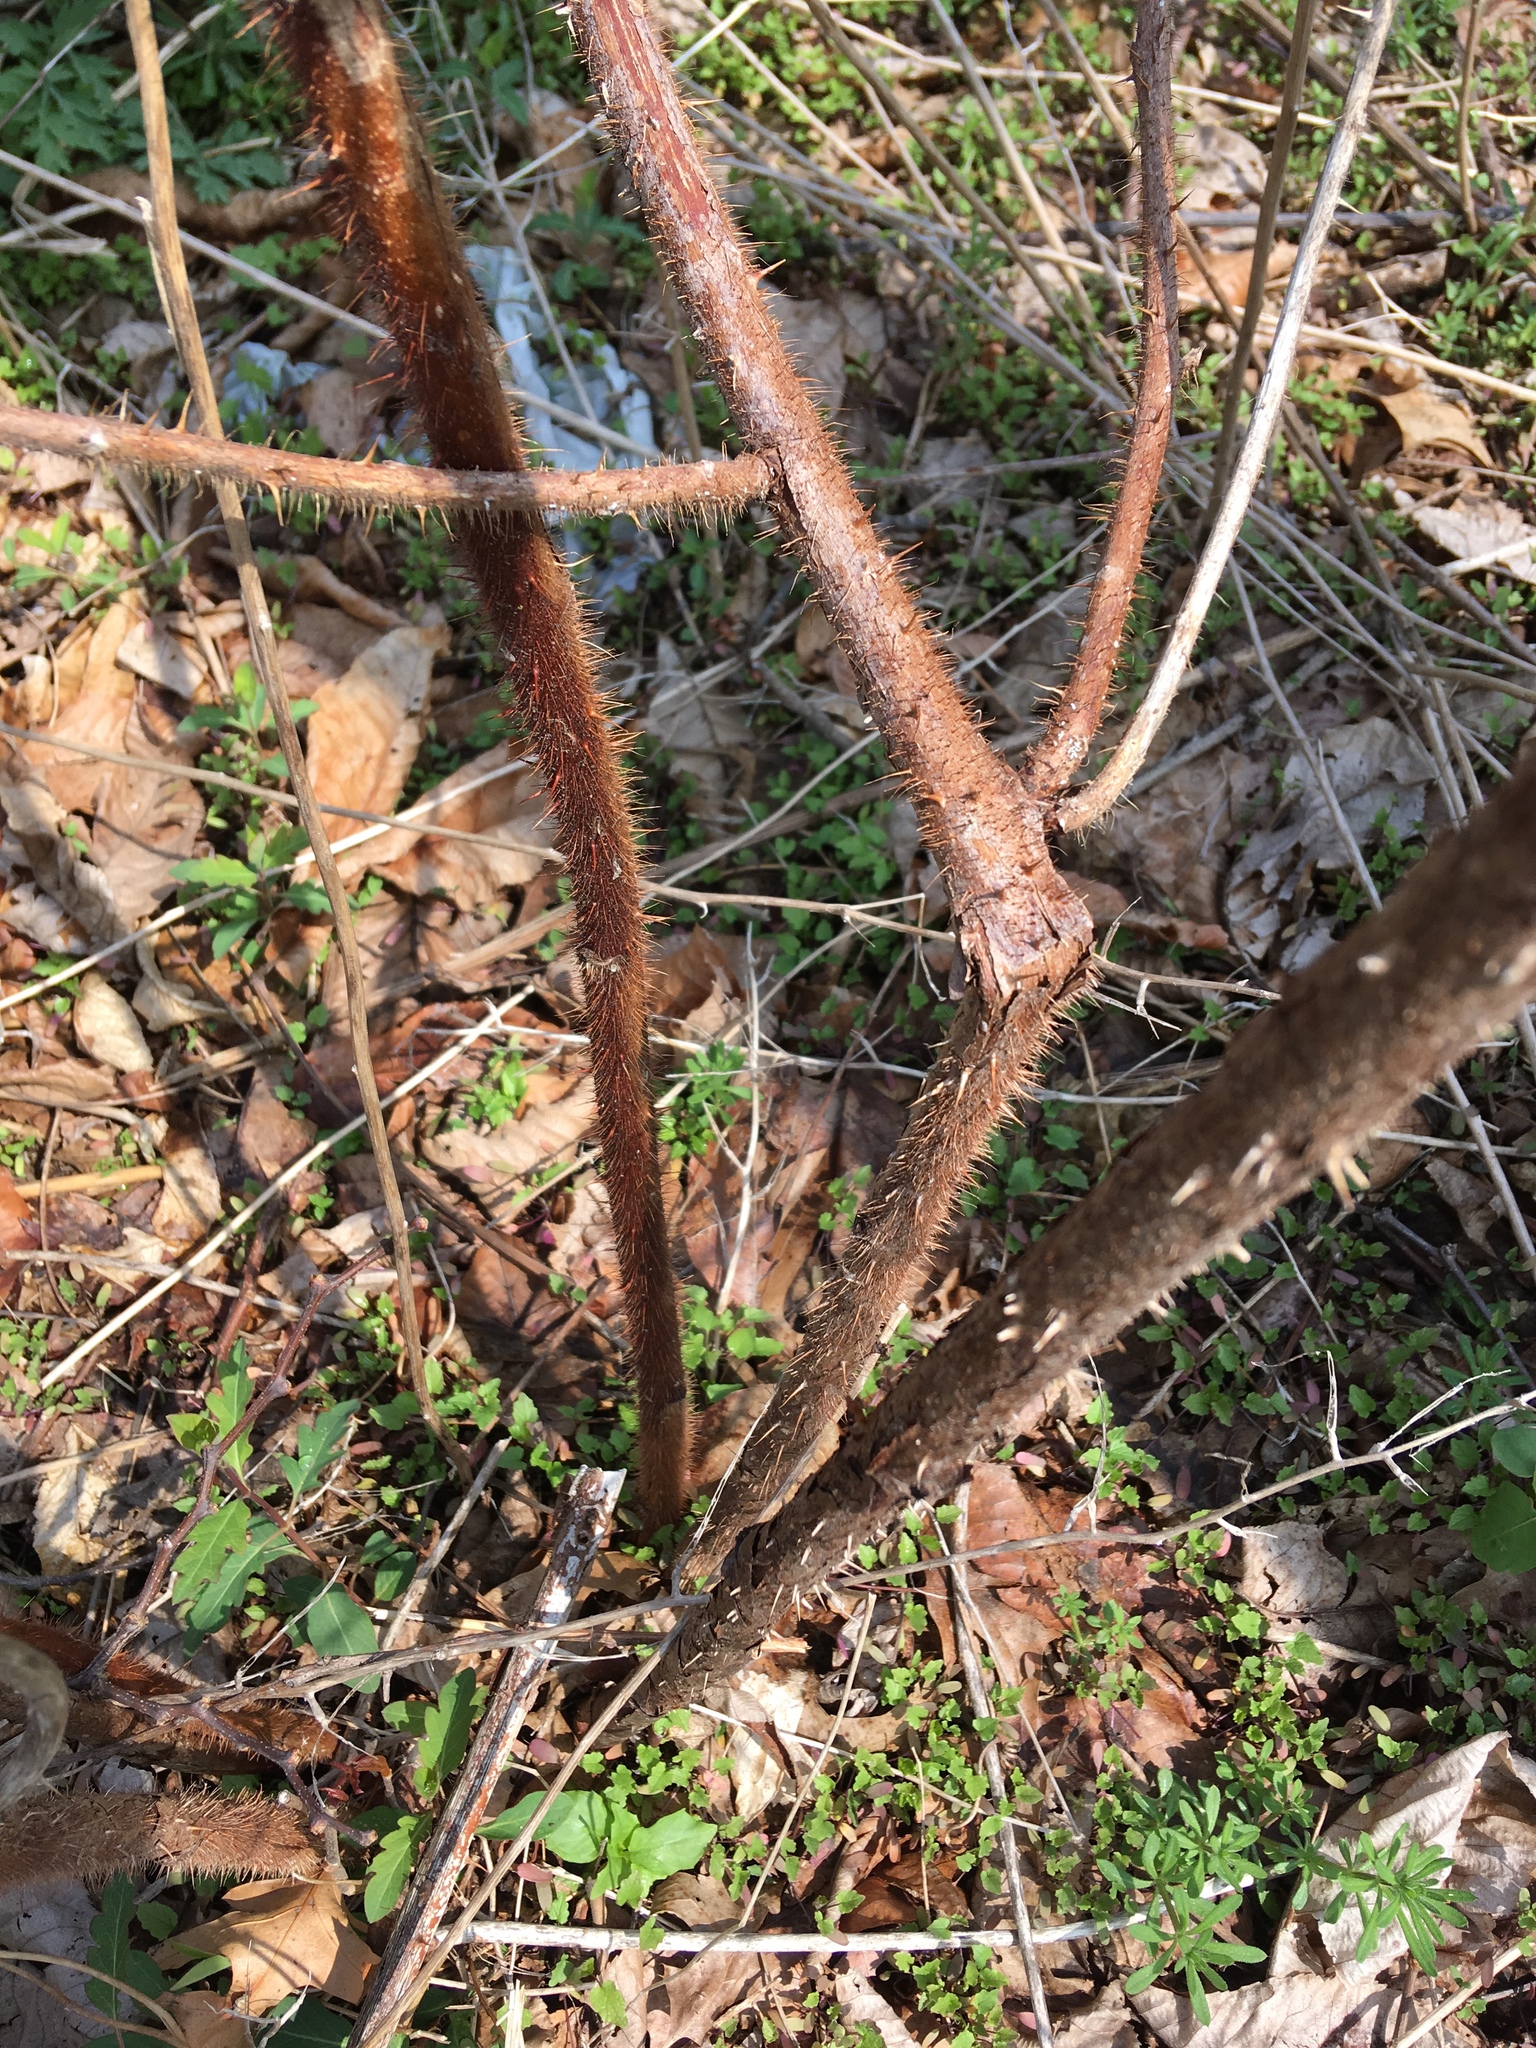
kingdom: Plantae
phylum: Tracheophyta
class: Magnoliopsida
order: Rosales
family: Rosaceae
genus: Rubus
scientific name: Rubus phoenicolasius
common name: Japanese wineberry
